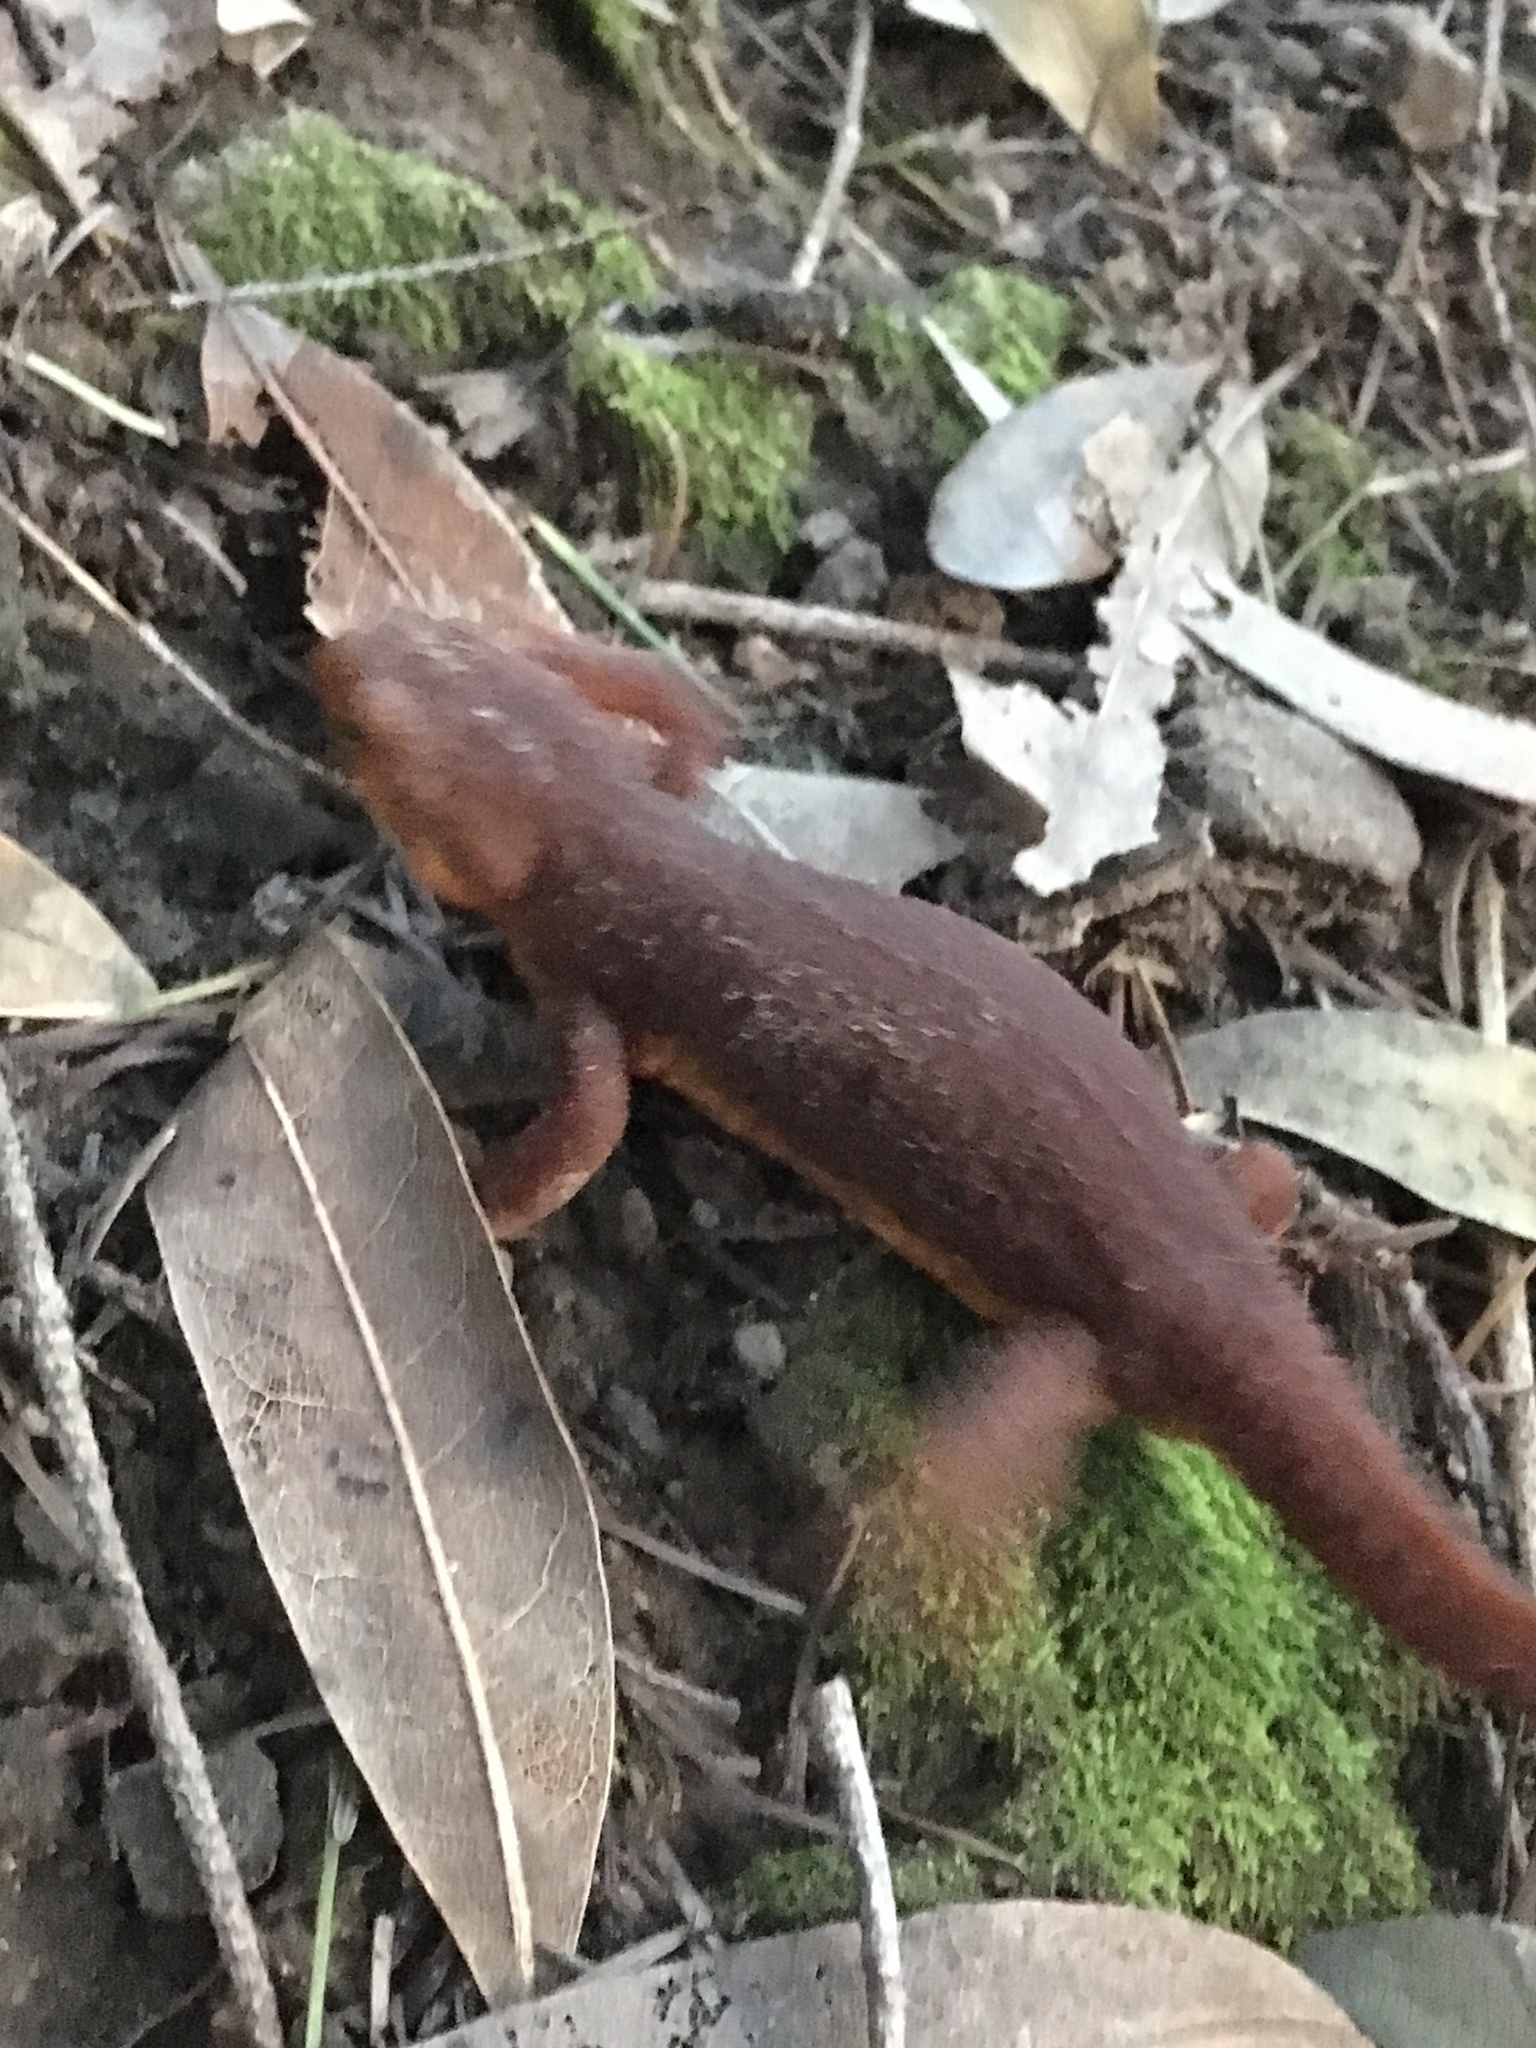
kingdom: Animalia
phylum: Chordata
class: Amphibia
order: Caudata
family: Salamandridae
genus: Taricha
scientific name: Taricha torosa
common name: California newt
